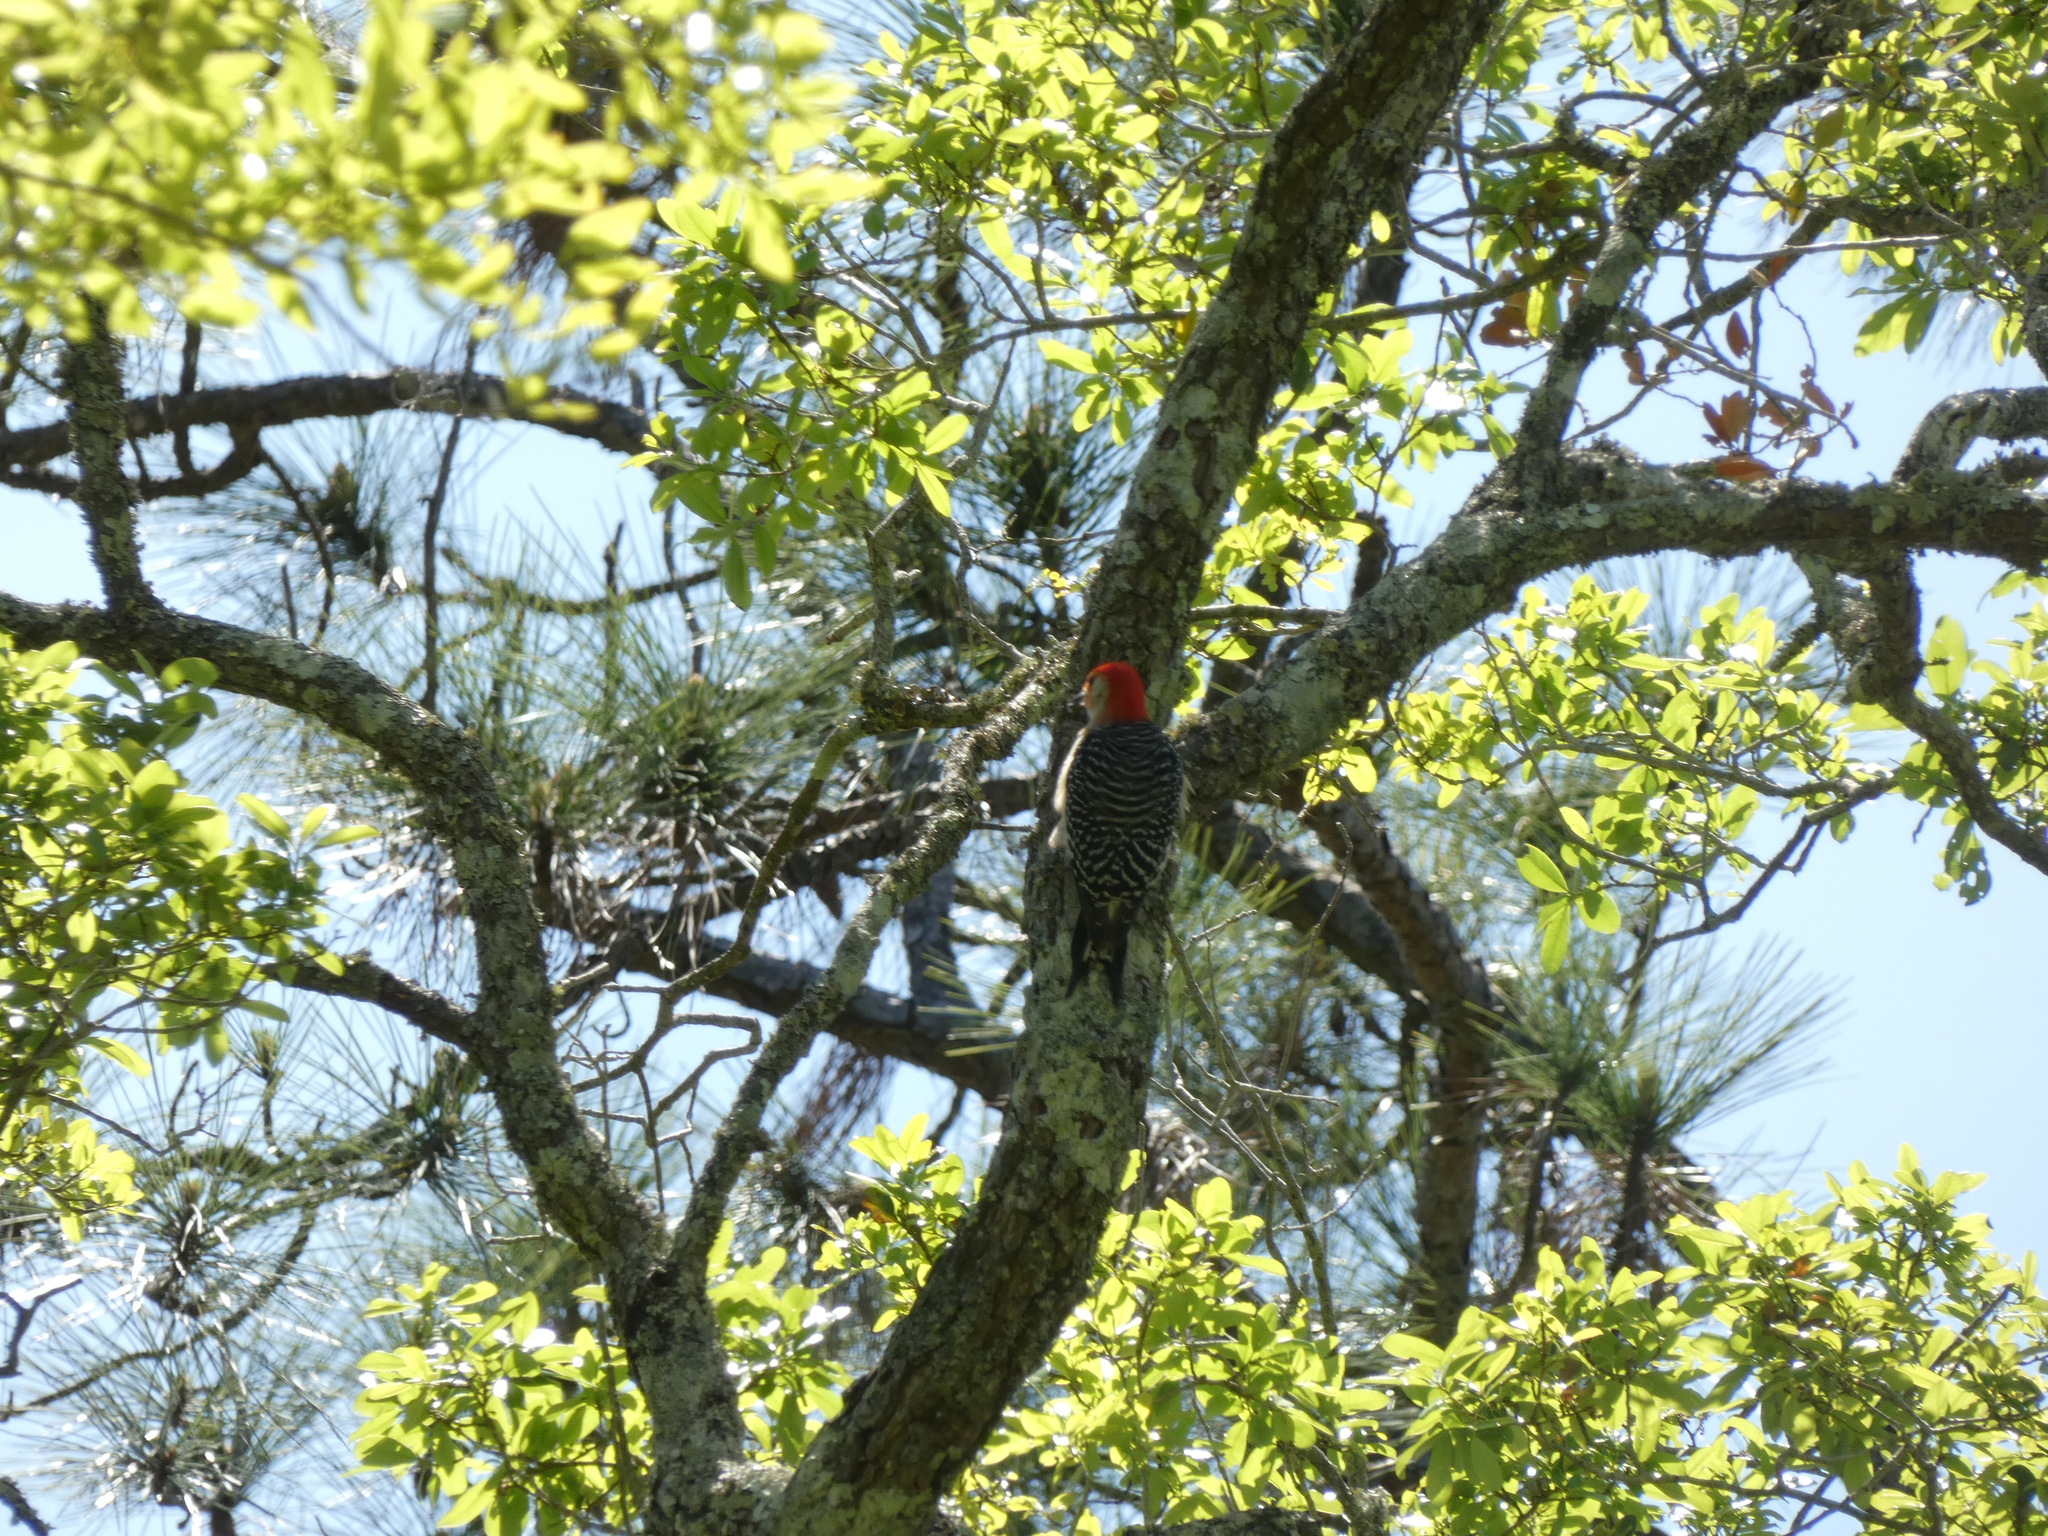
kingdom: Animalia
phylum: Chordata
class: Aves
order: Piciformes
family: Picidae
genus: Melanerpes
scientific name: Melanerpes carolinus
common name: Red-bellied woodpecker
